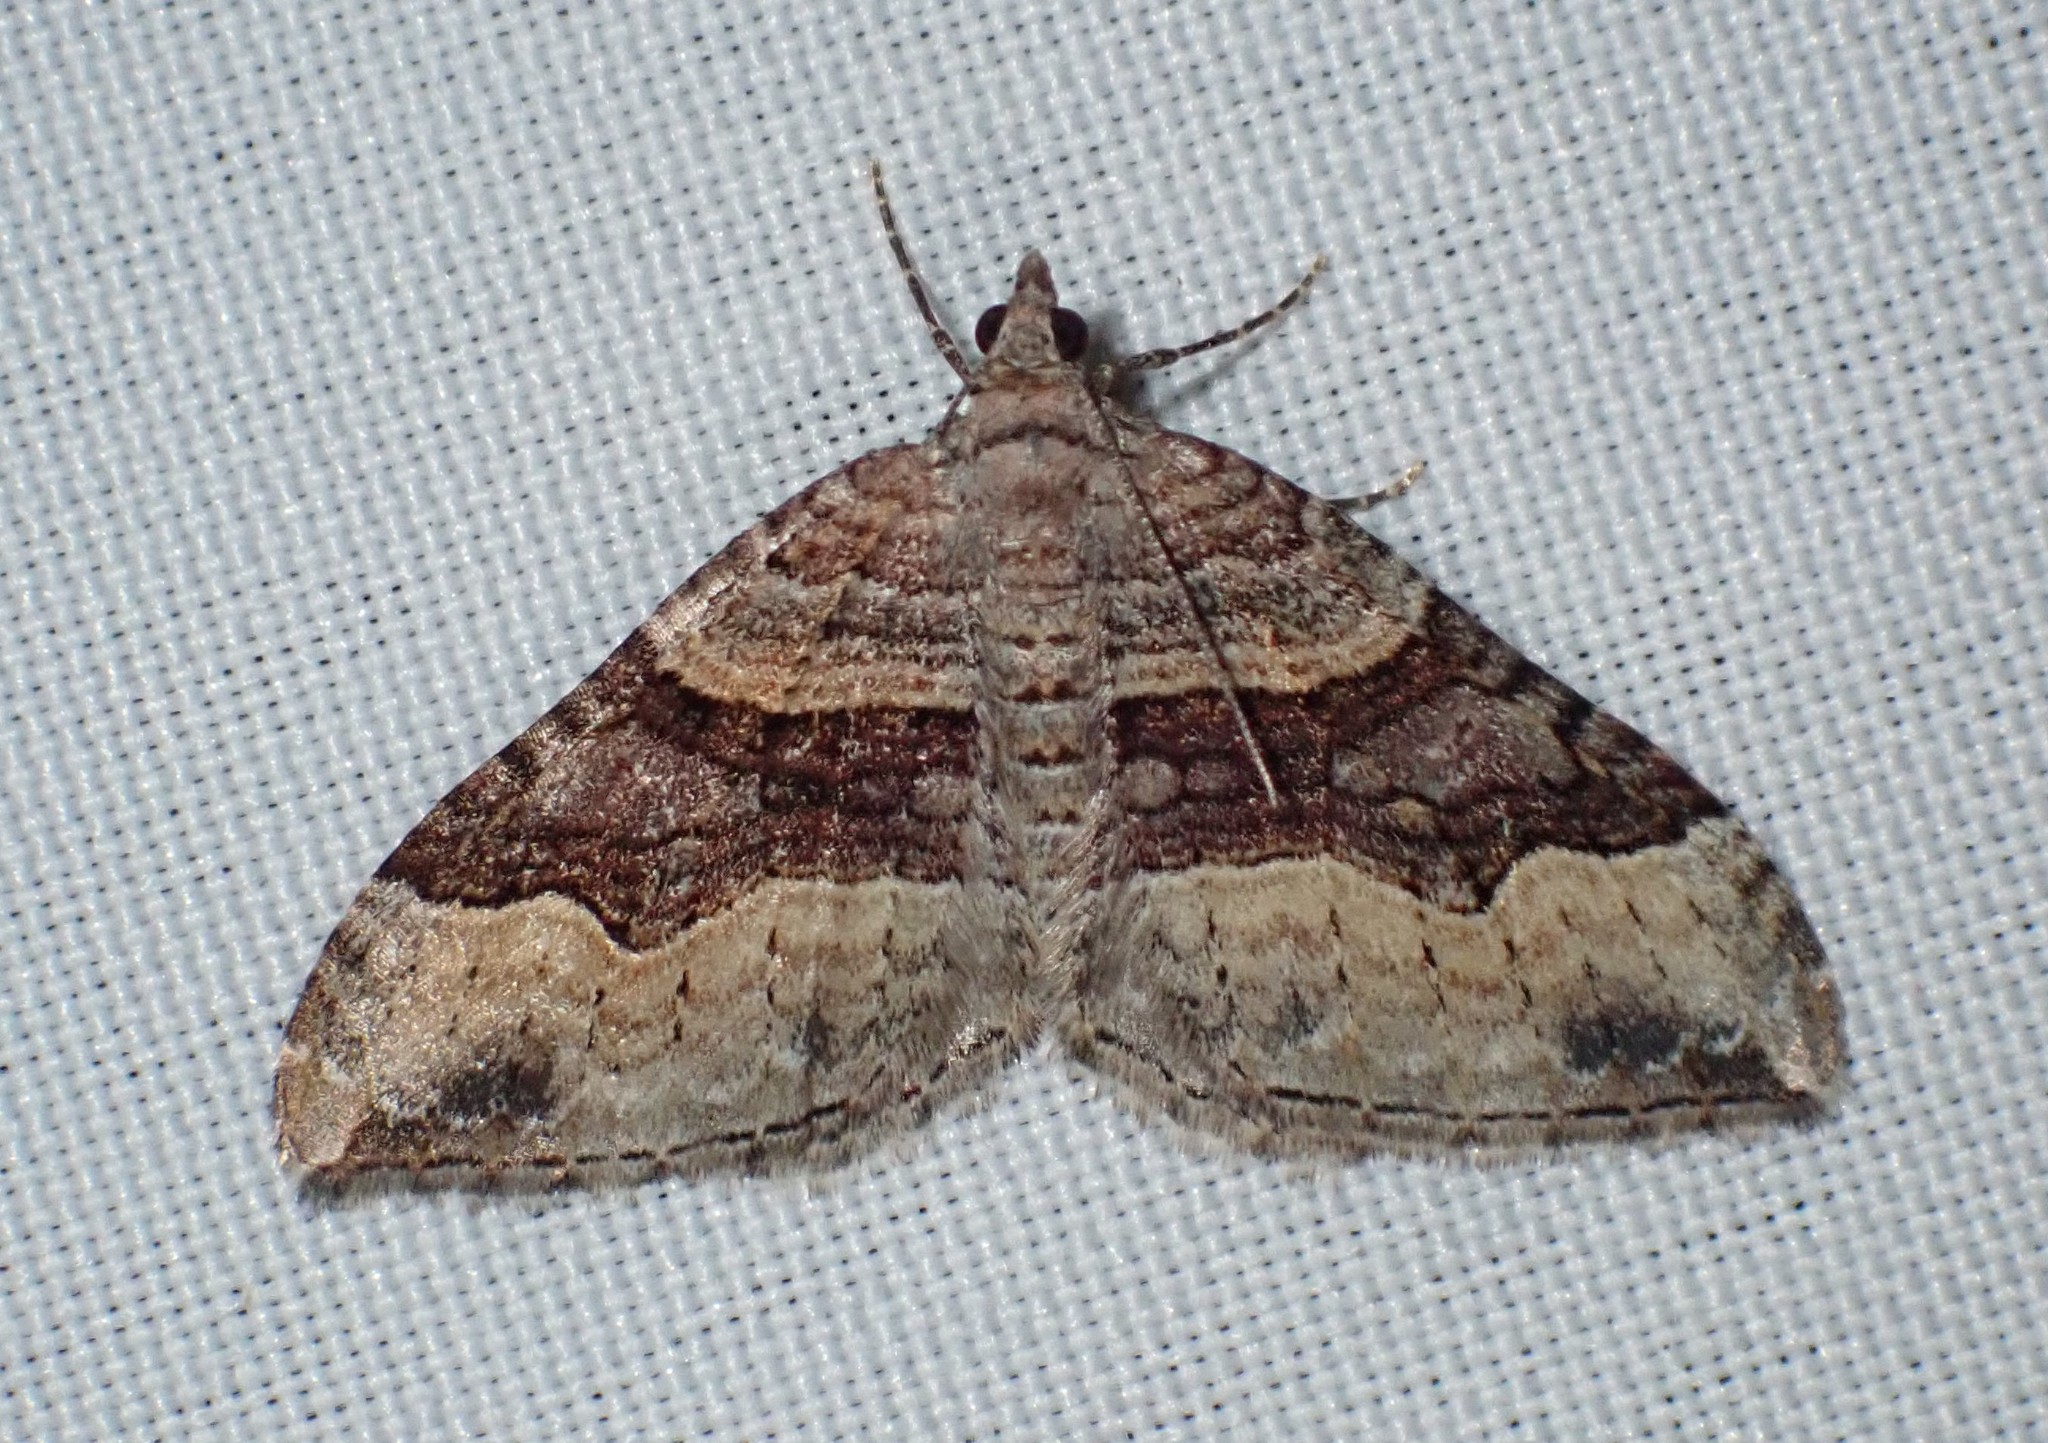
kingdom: Animalia
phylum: Arthropoda
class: Insecta
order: Lepidoptera
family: Geometridae
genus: Xanthorhoe
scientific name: Xanthorhoe defensaria
